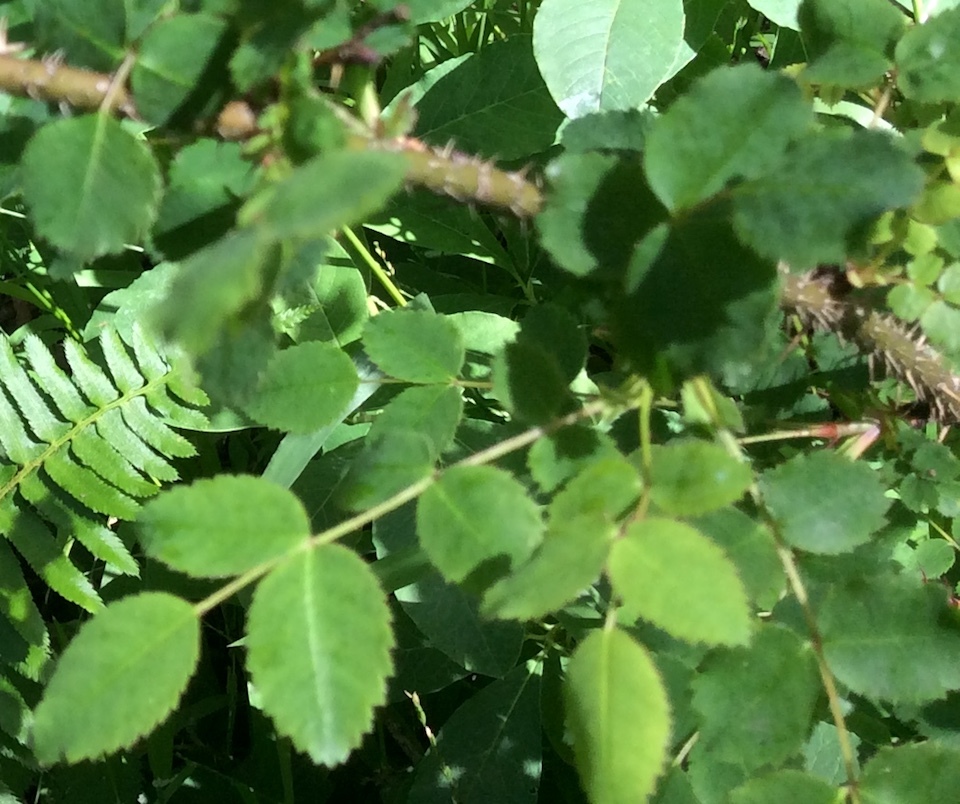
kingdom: Plantae
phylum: Tracheophyta
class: Magnoliopsida
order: Rosales
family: Rosaceae
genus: Rosa
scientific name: Rosa gymnocarpa
